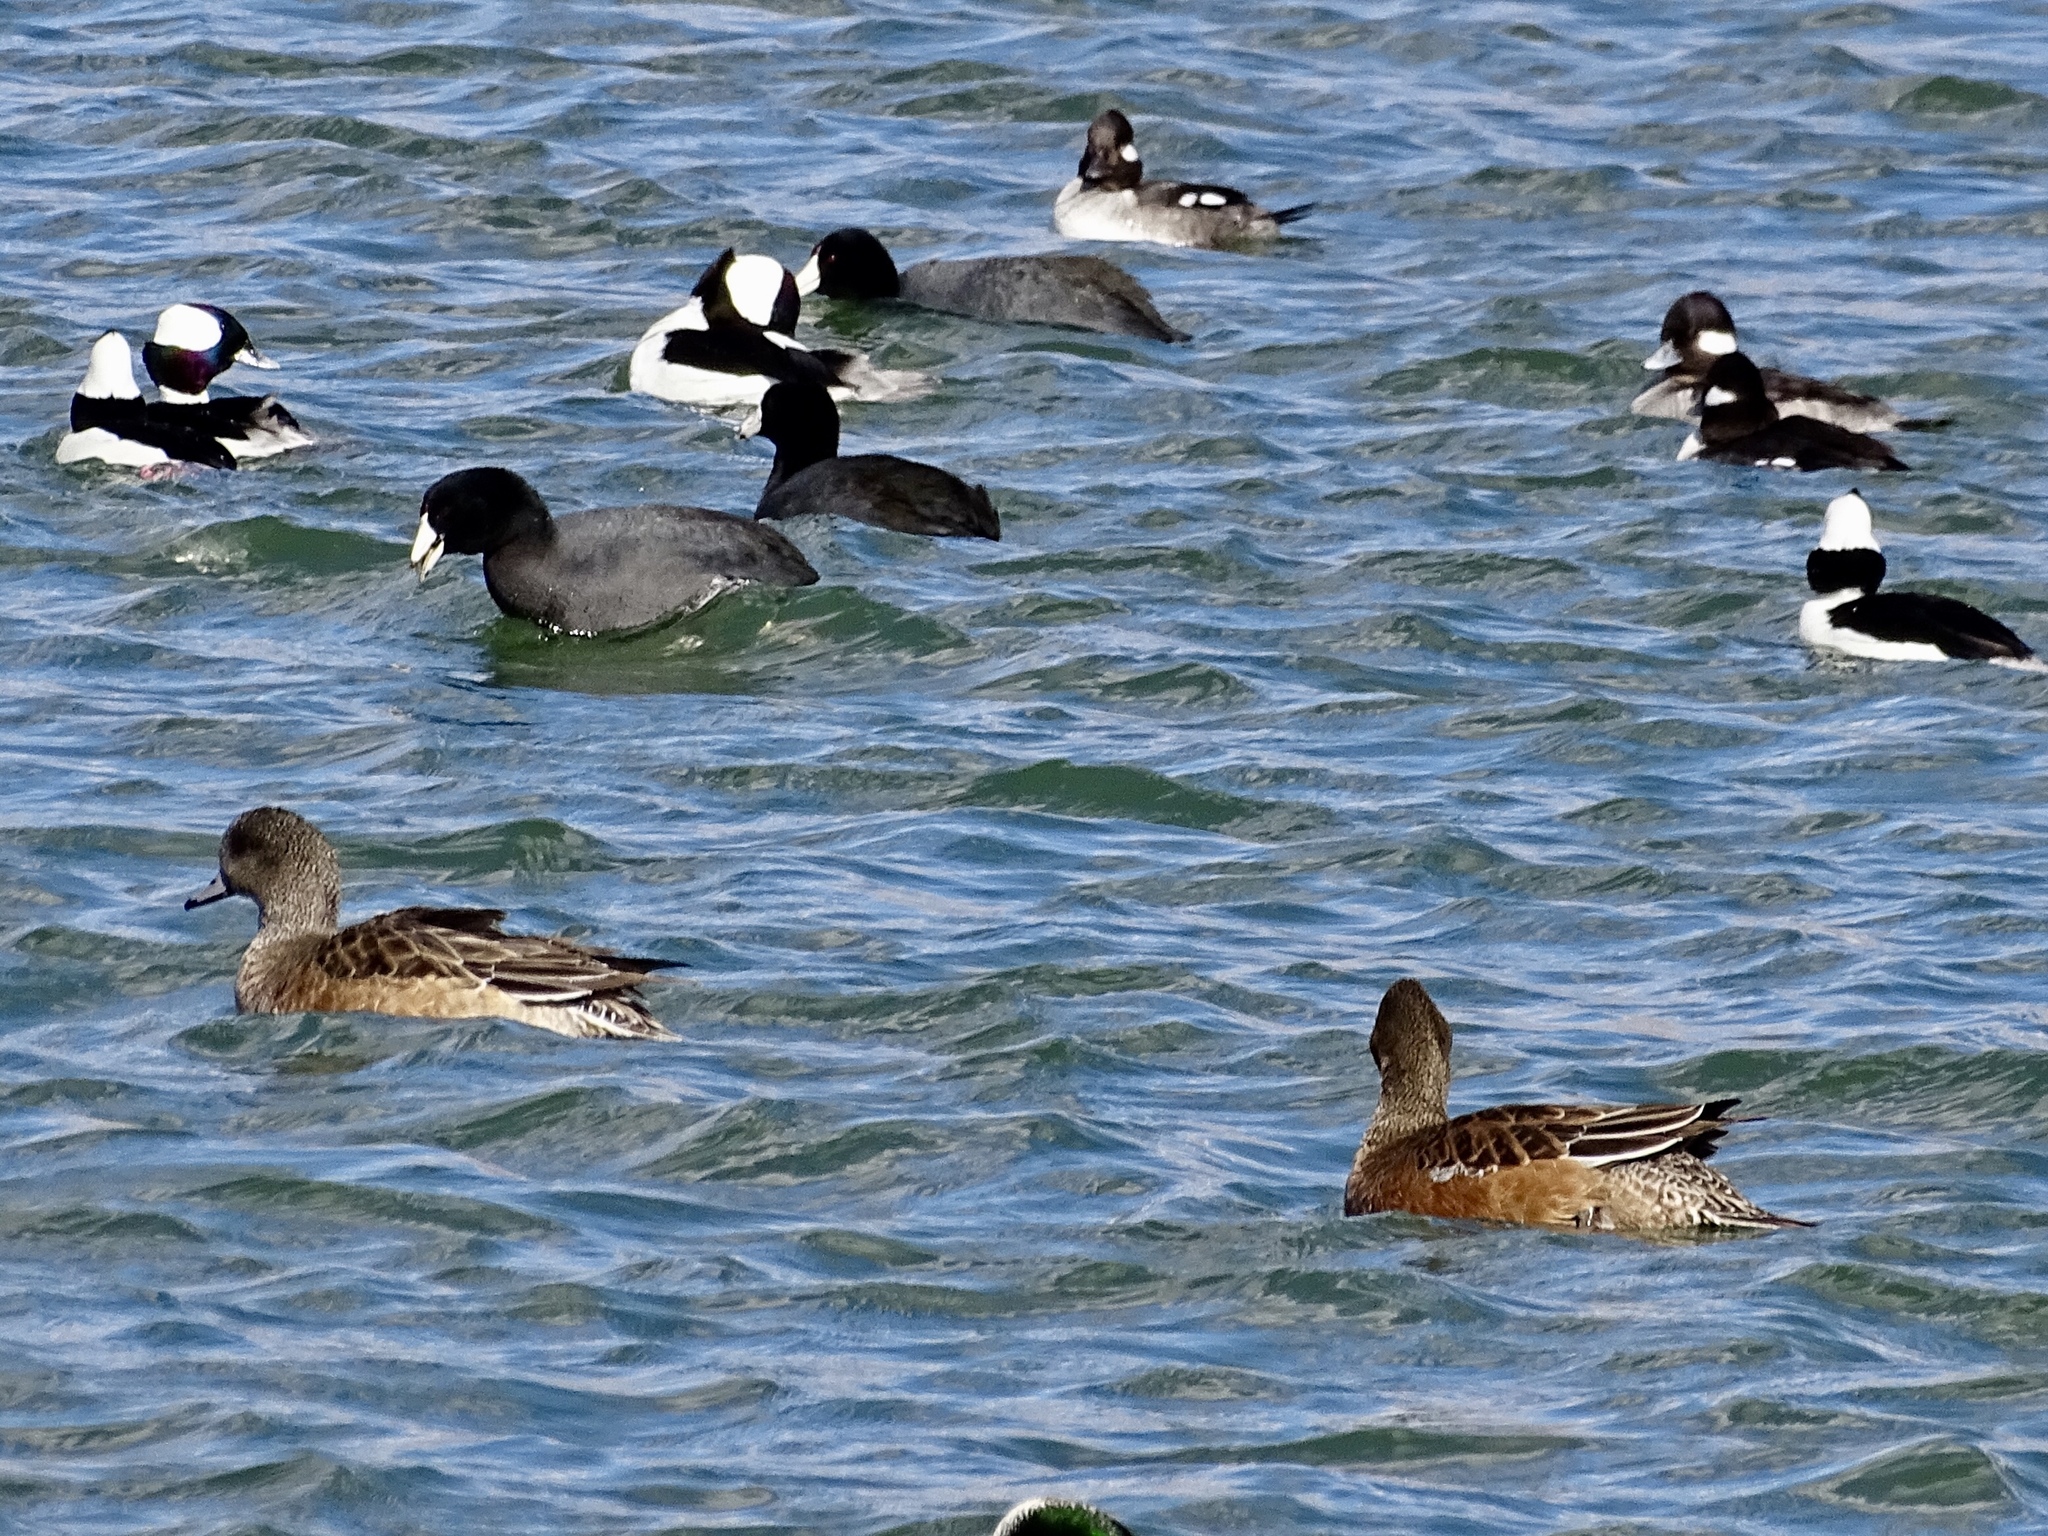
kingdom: Animalia
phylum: Chordata
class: Aves
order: Anseriformes
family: Anatidae
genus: Mareca
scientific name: Mareca americana
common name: American wigeon
